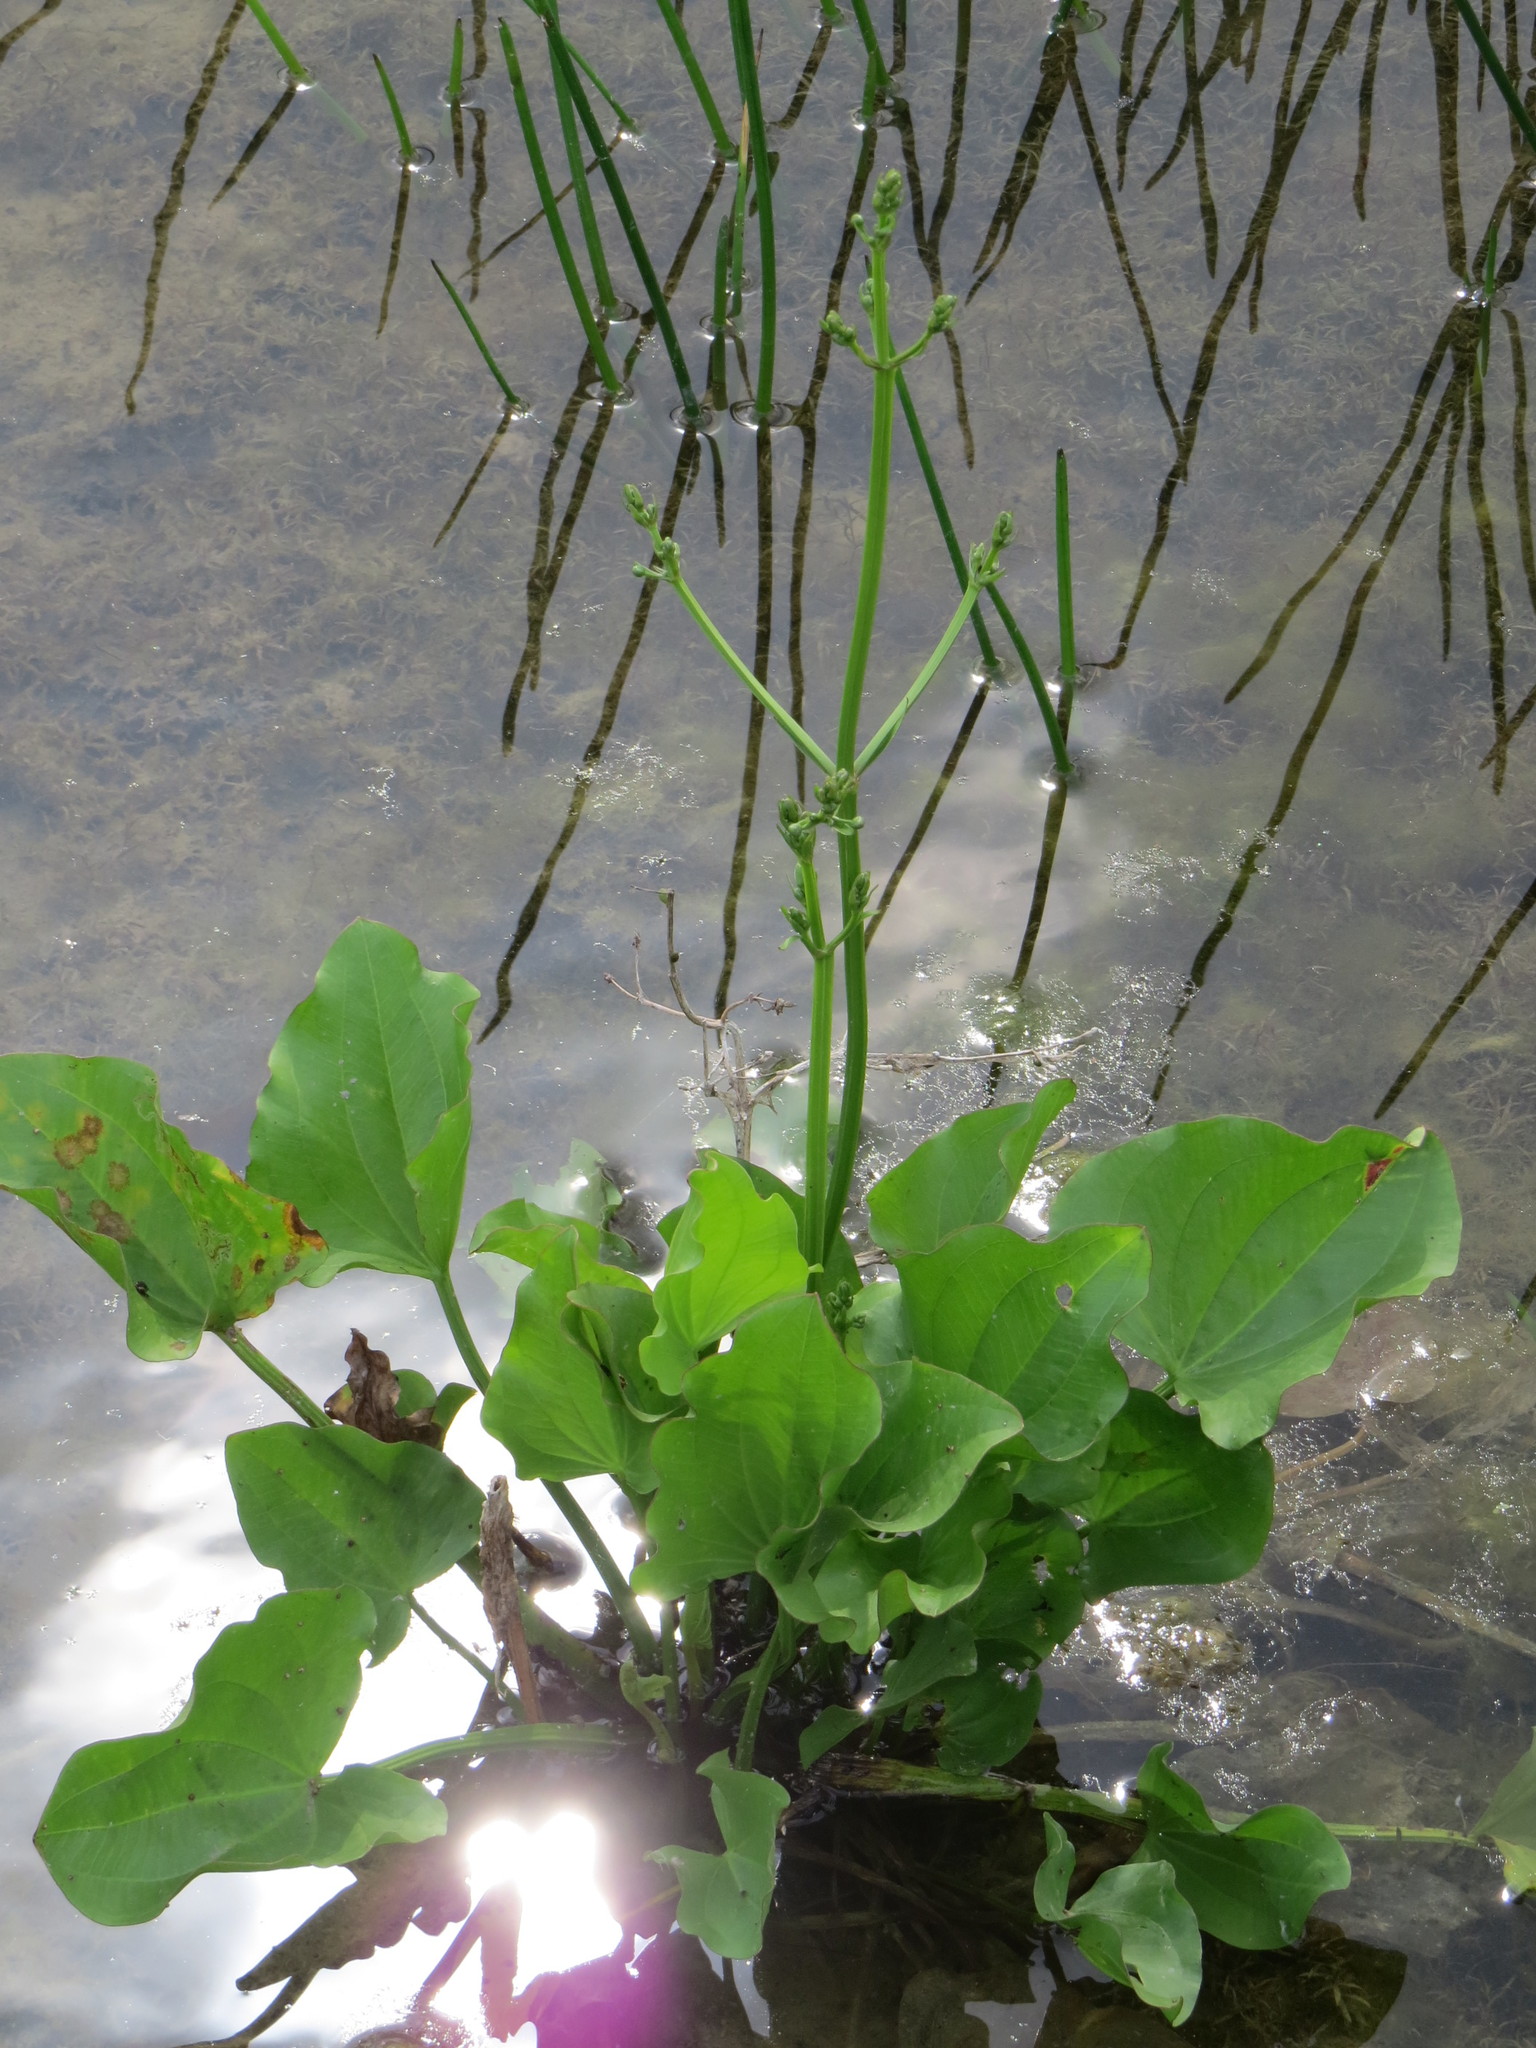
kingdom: Plantae
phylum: Tracheophyta
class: Liliopsida
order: Alismatales
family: Alismataceae
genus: Echinodorus
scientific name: Echinodorus berteroi
